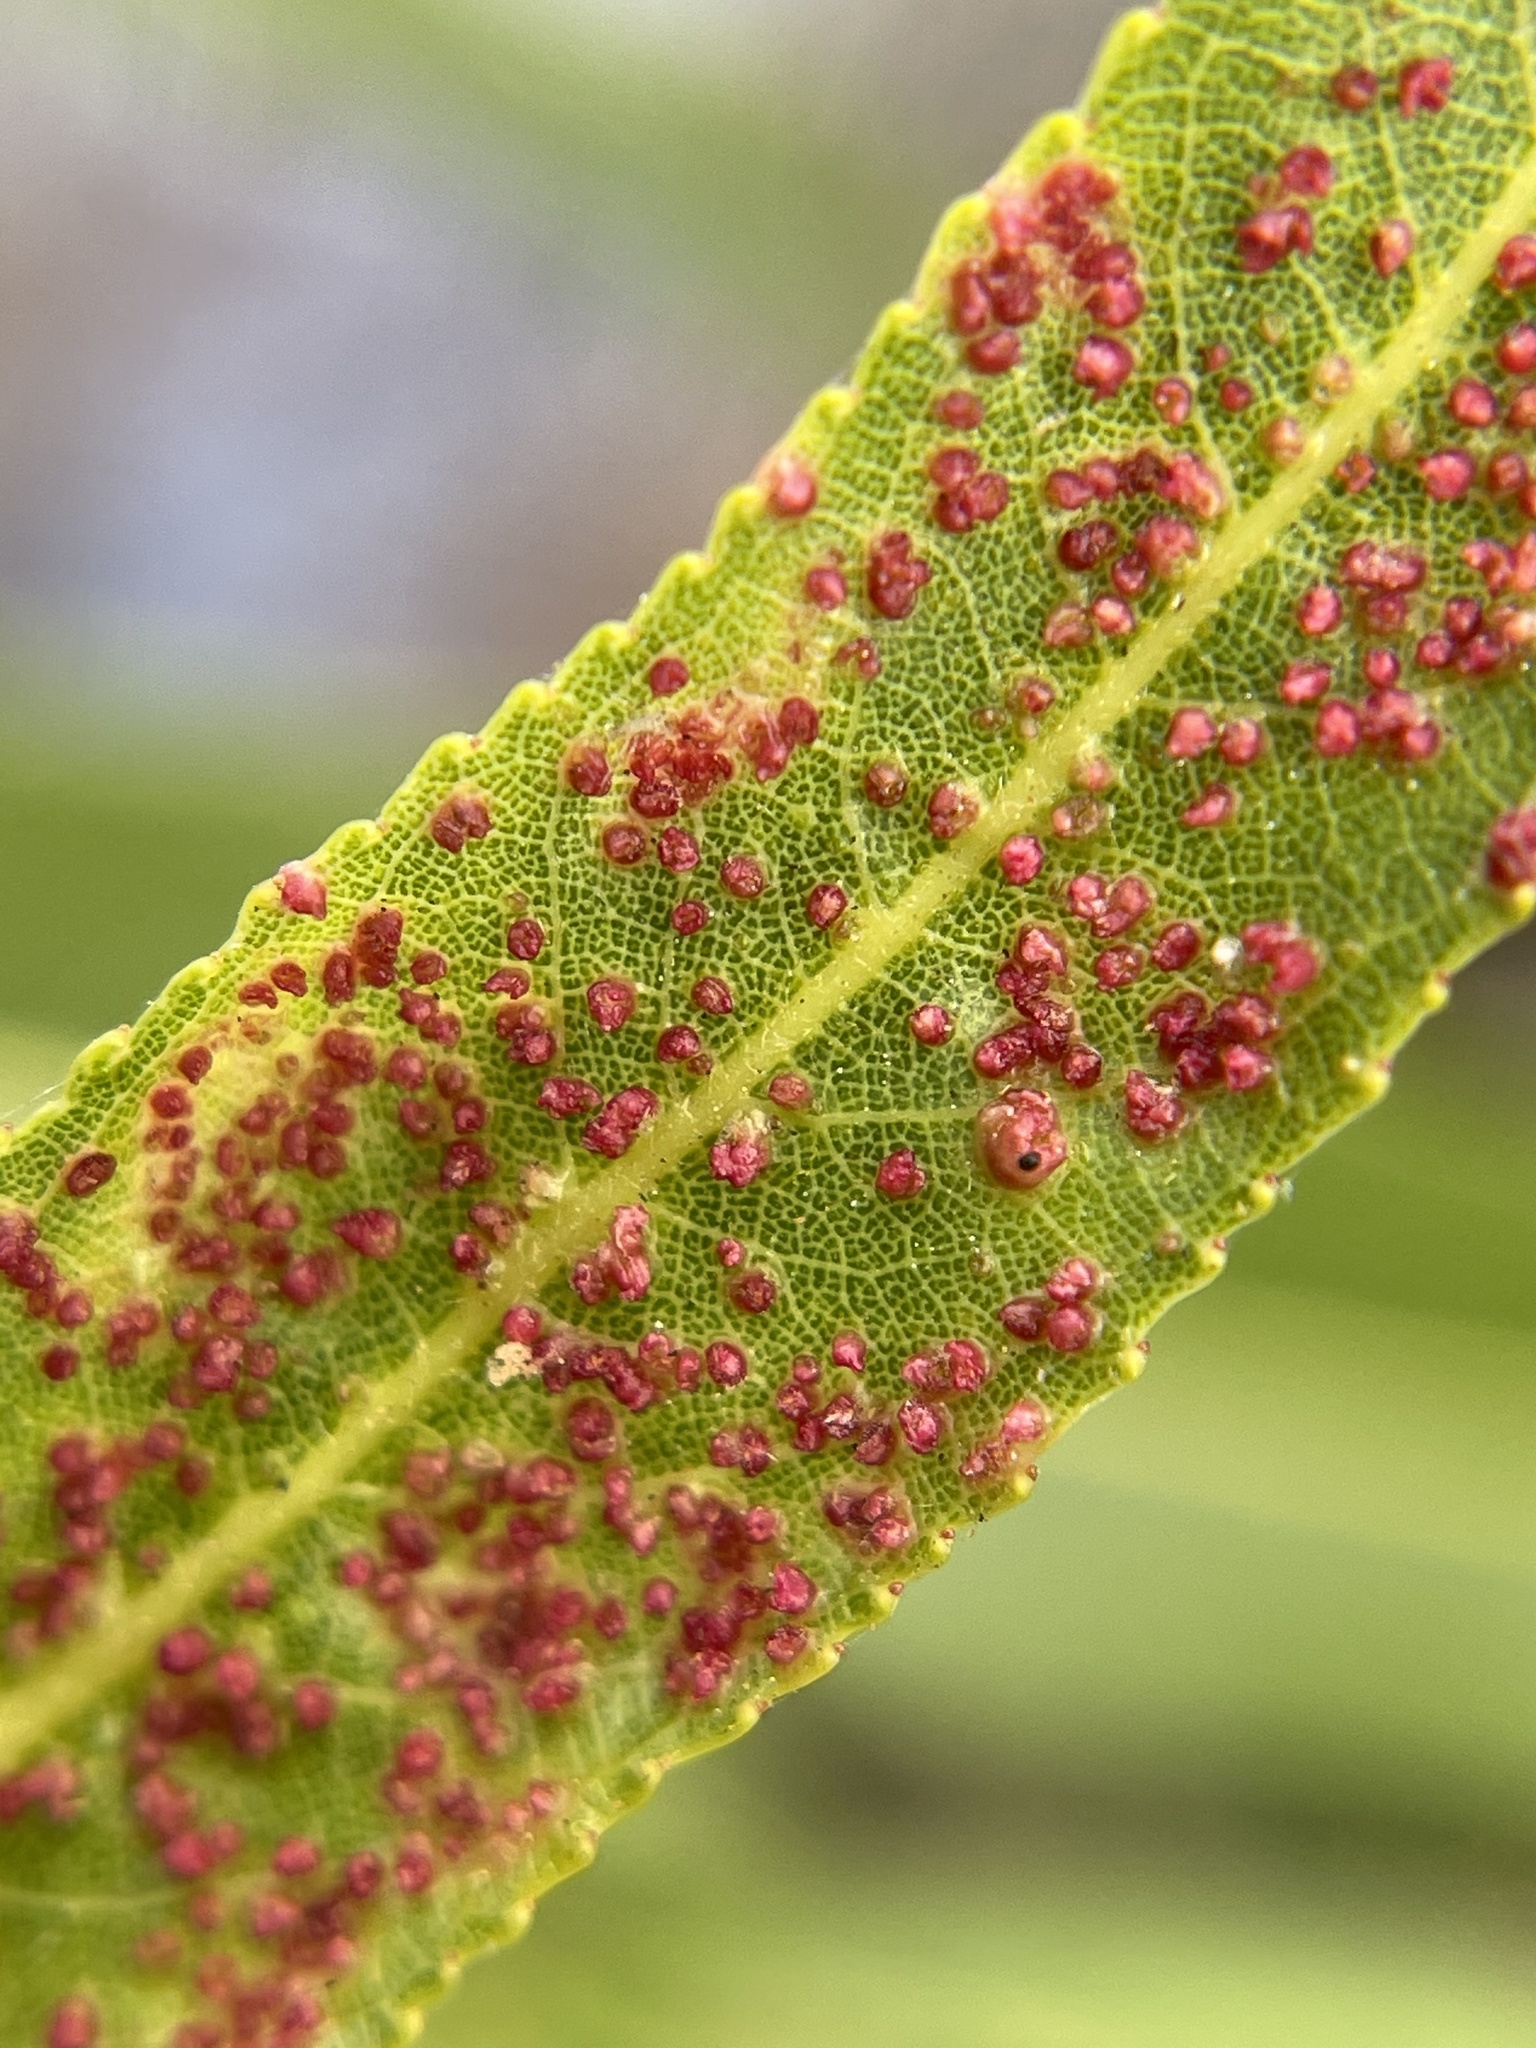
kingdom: Animalia
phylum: Arthropoda
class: Arachnida
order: Trombidiformes
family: Eriophyidae
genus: Aculus
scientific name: Aculus tetanothrix
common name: Willow bead gall mite
